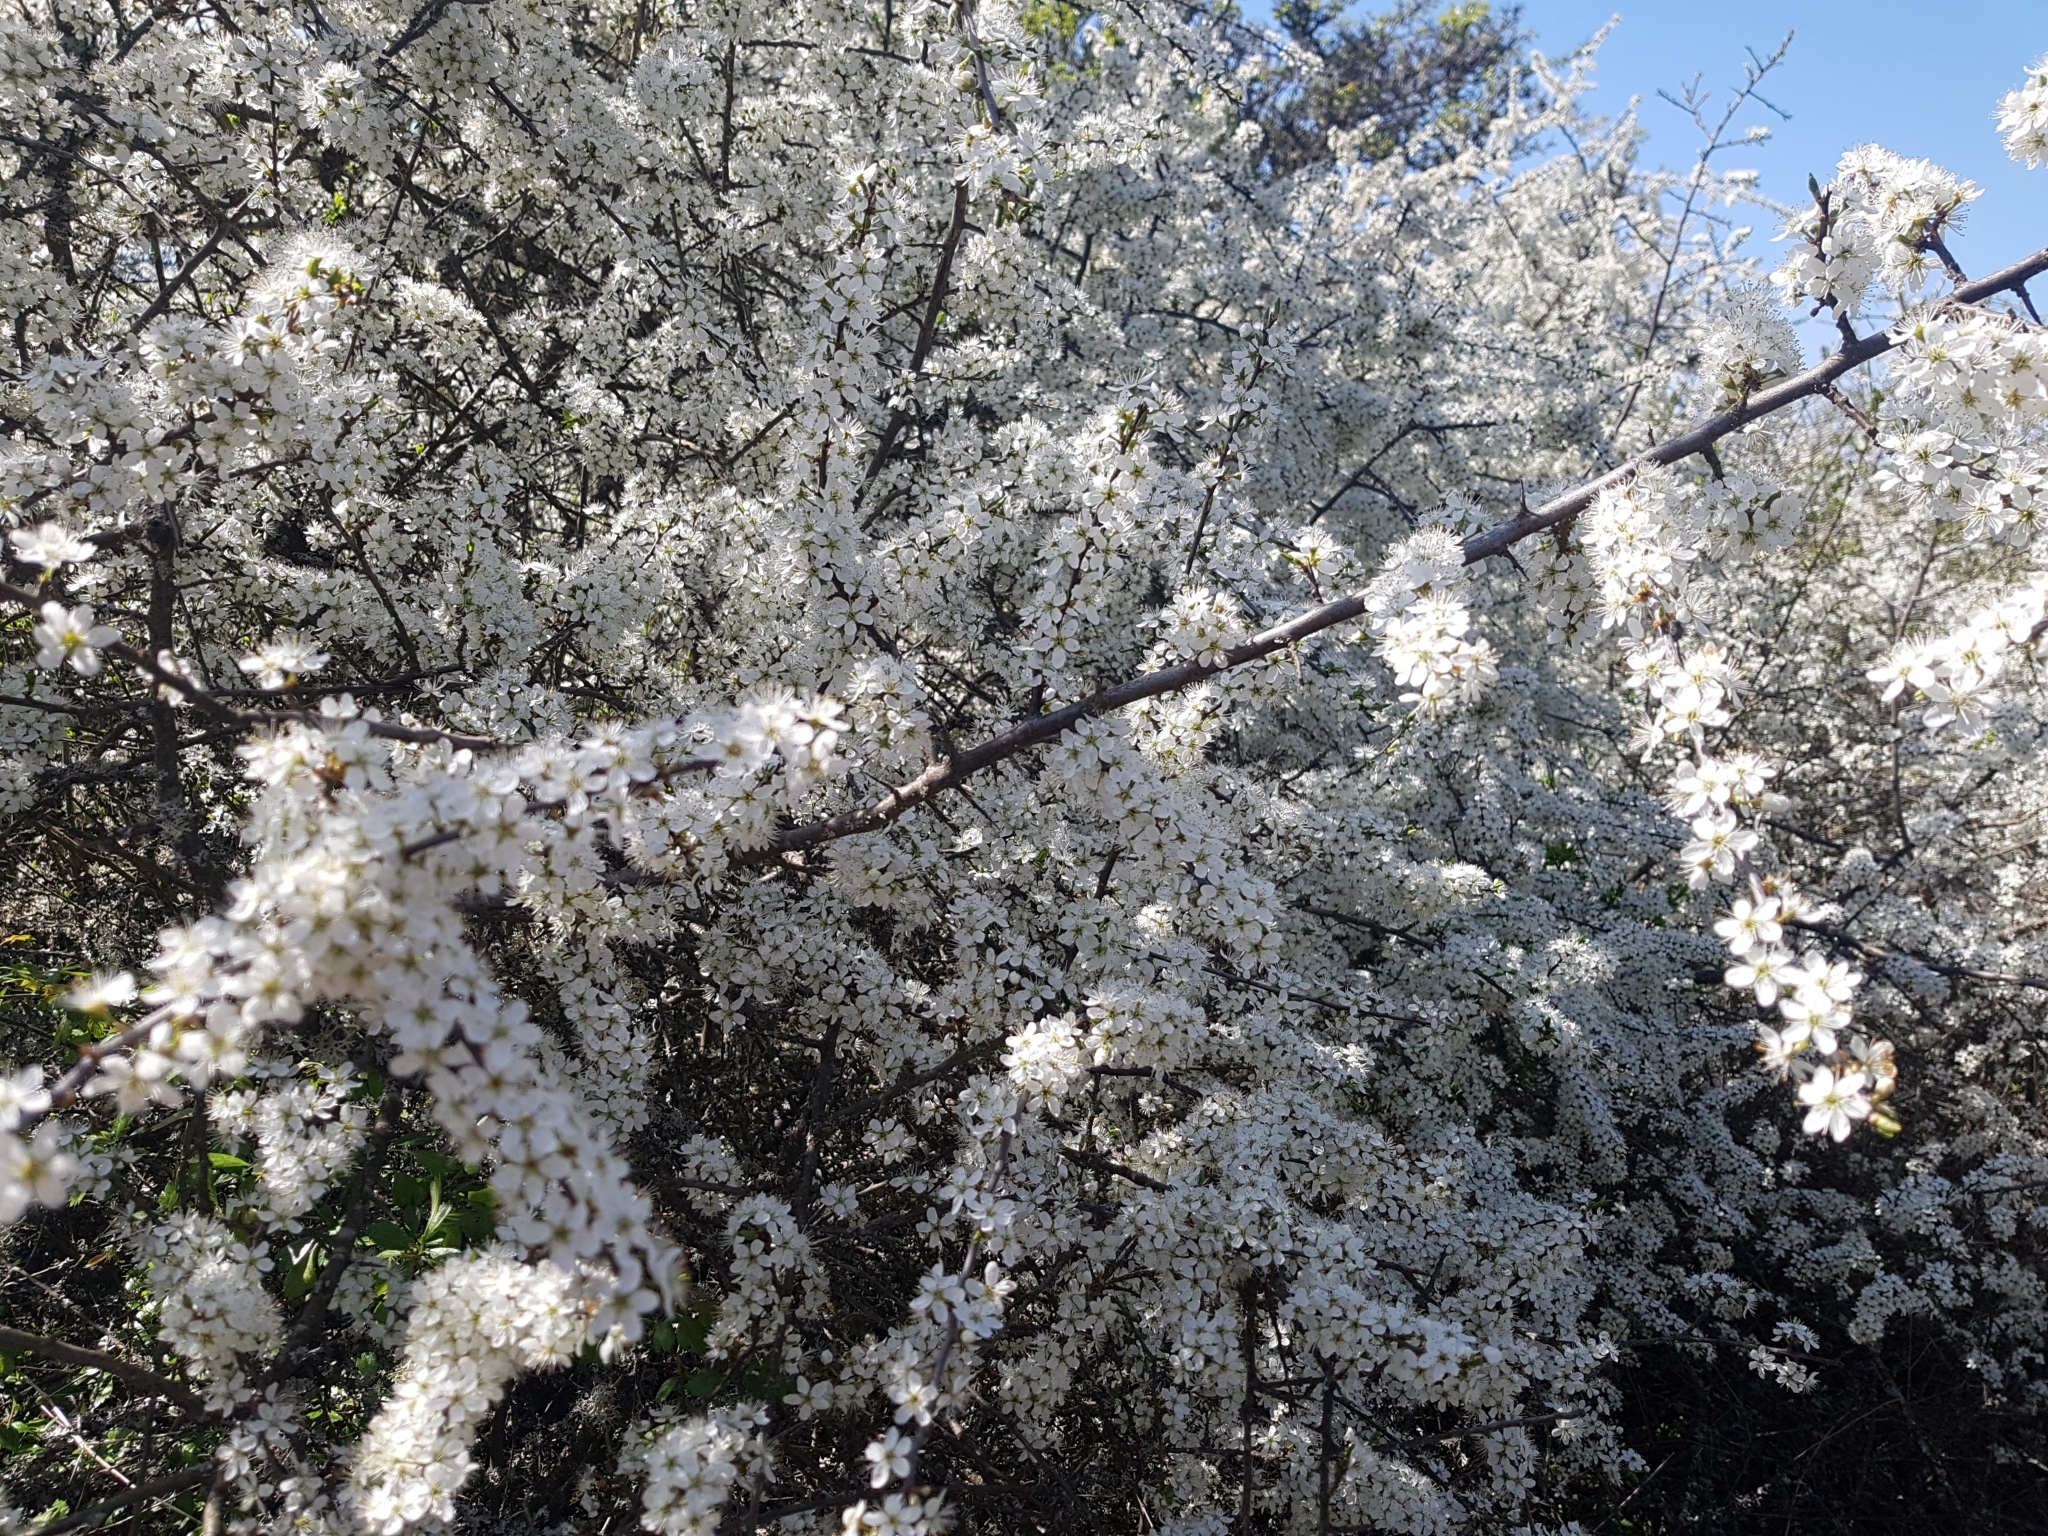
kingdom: Plantae
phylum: Tracheophyta
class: Magnoliopsida
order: Rosales
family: Rosaceae
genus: Prunus
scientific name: Prunus spinosa
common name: Blackthorn
